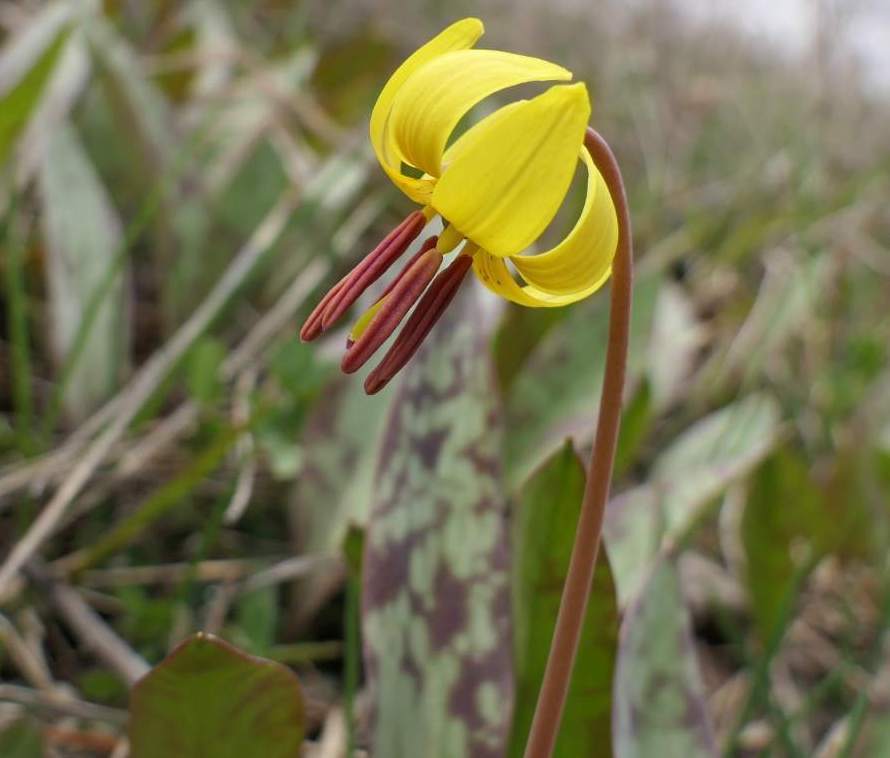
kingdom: Plantae
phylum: Tracheophyta
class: Liliopsida
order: Liliales
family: Liliaceae
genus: Erythronium
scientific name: Erythronium americanum
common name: Yellow adder's-tongue
